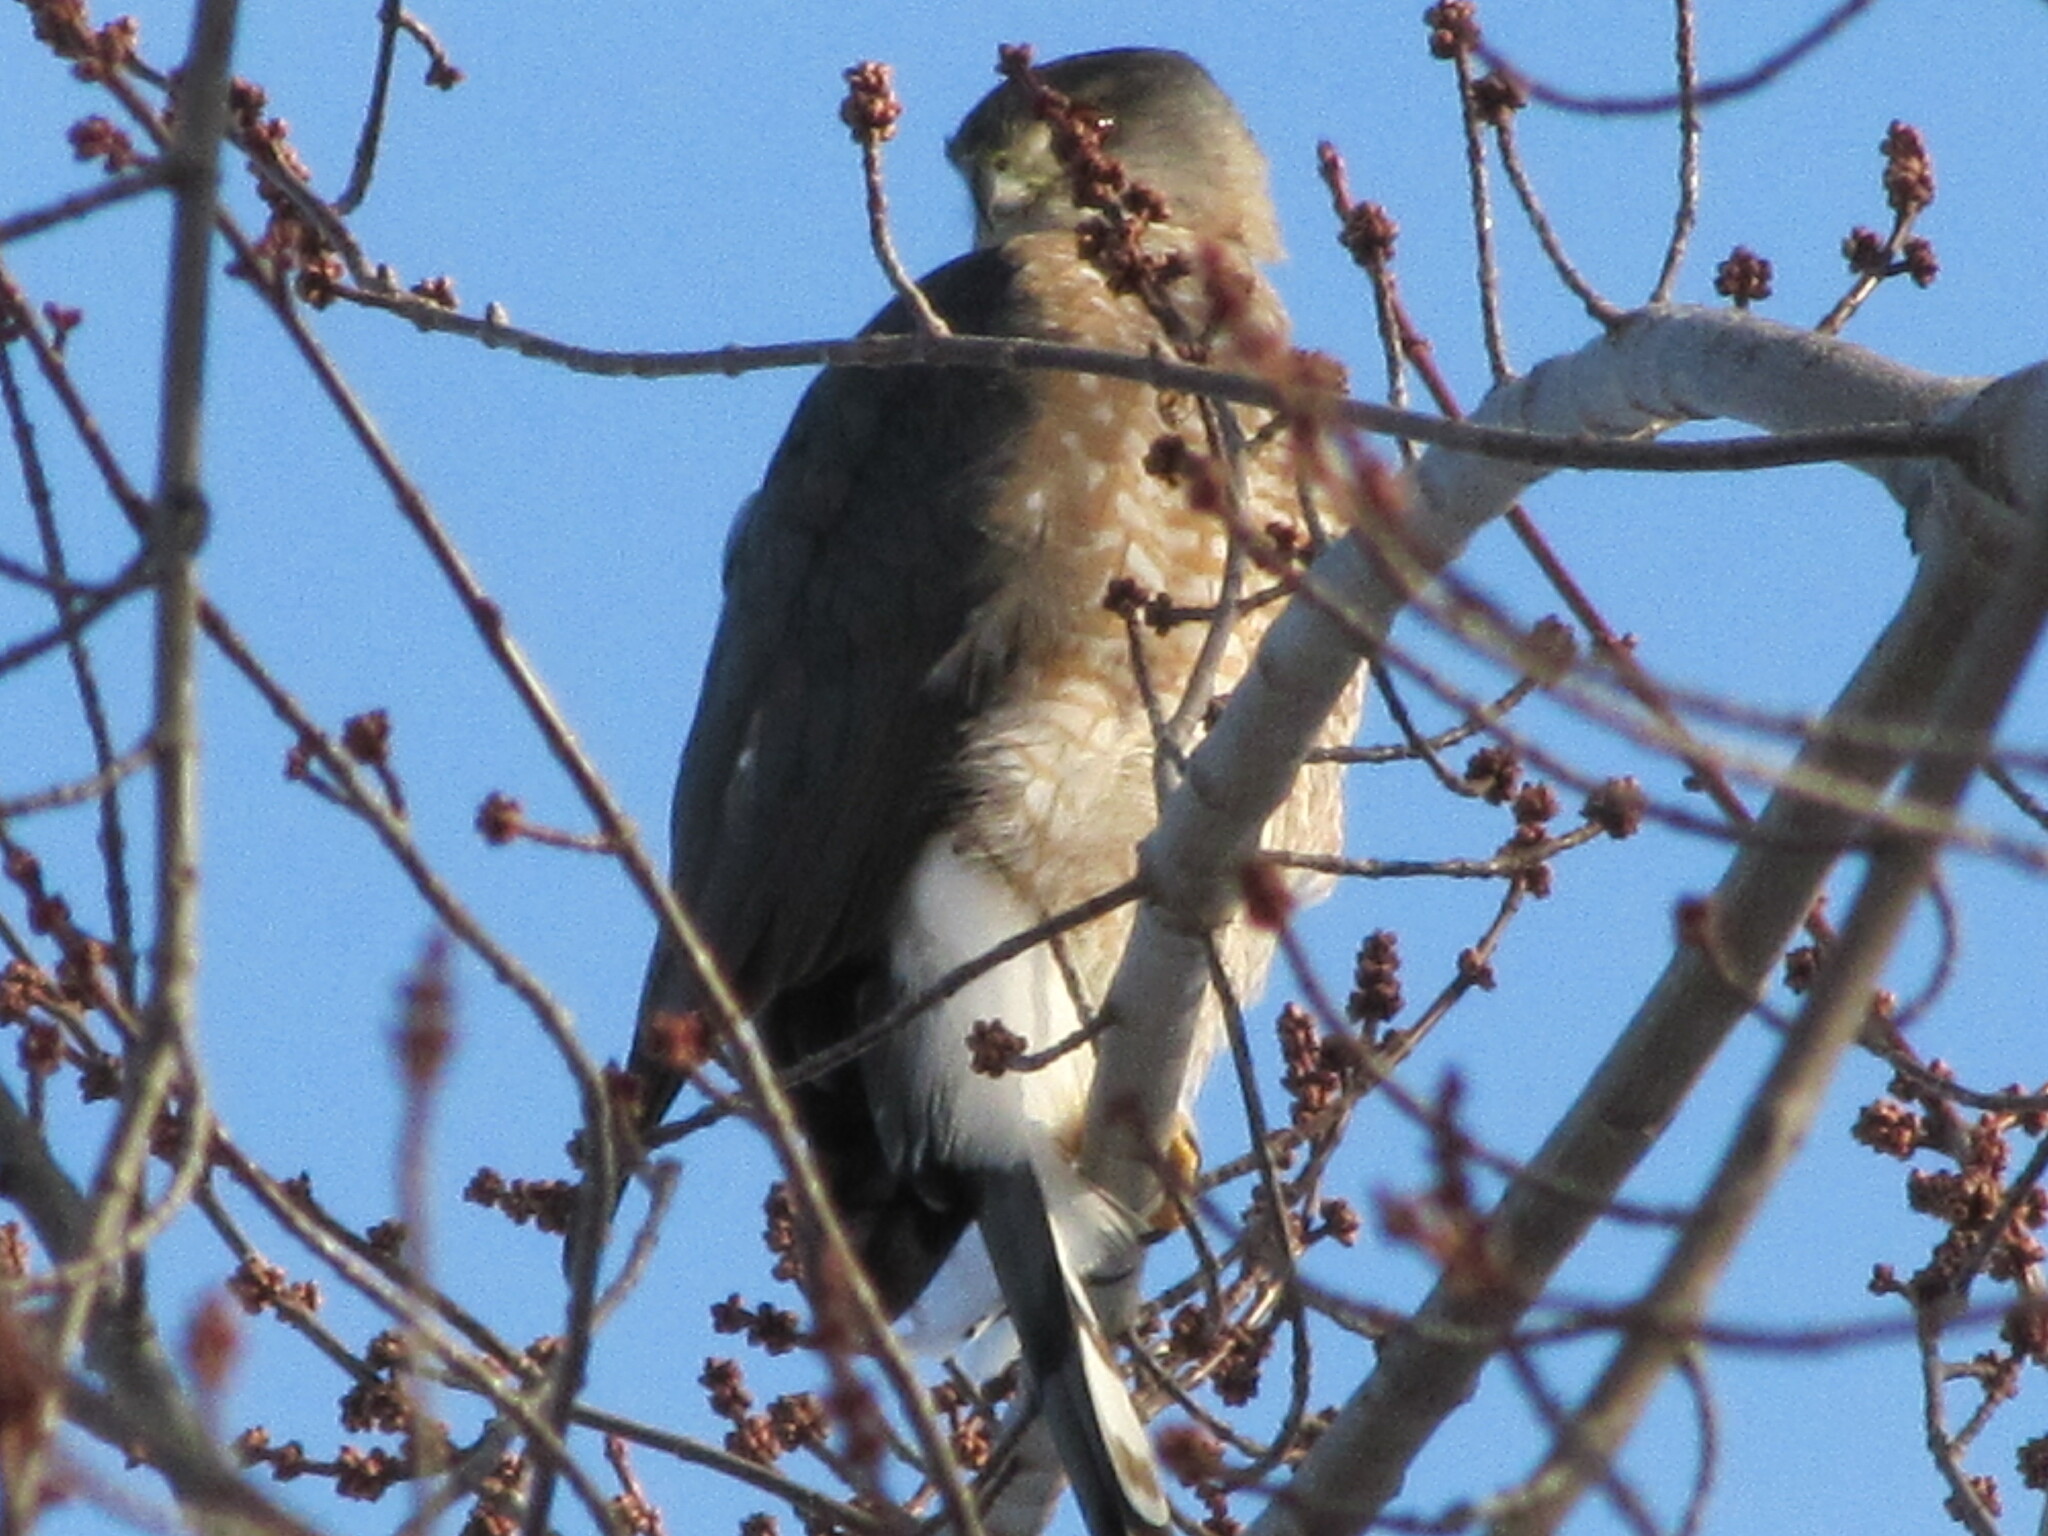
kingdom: Animalia
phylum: Chordata
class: Aves
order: Accipitriformes
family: Accipitridae
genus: Accipiter
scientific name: Accipiter cooperii
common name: Cooper's hawk
